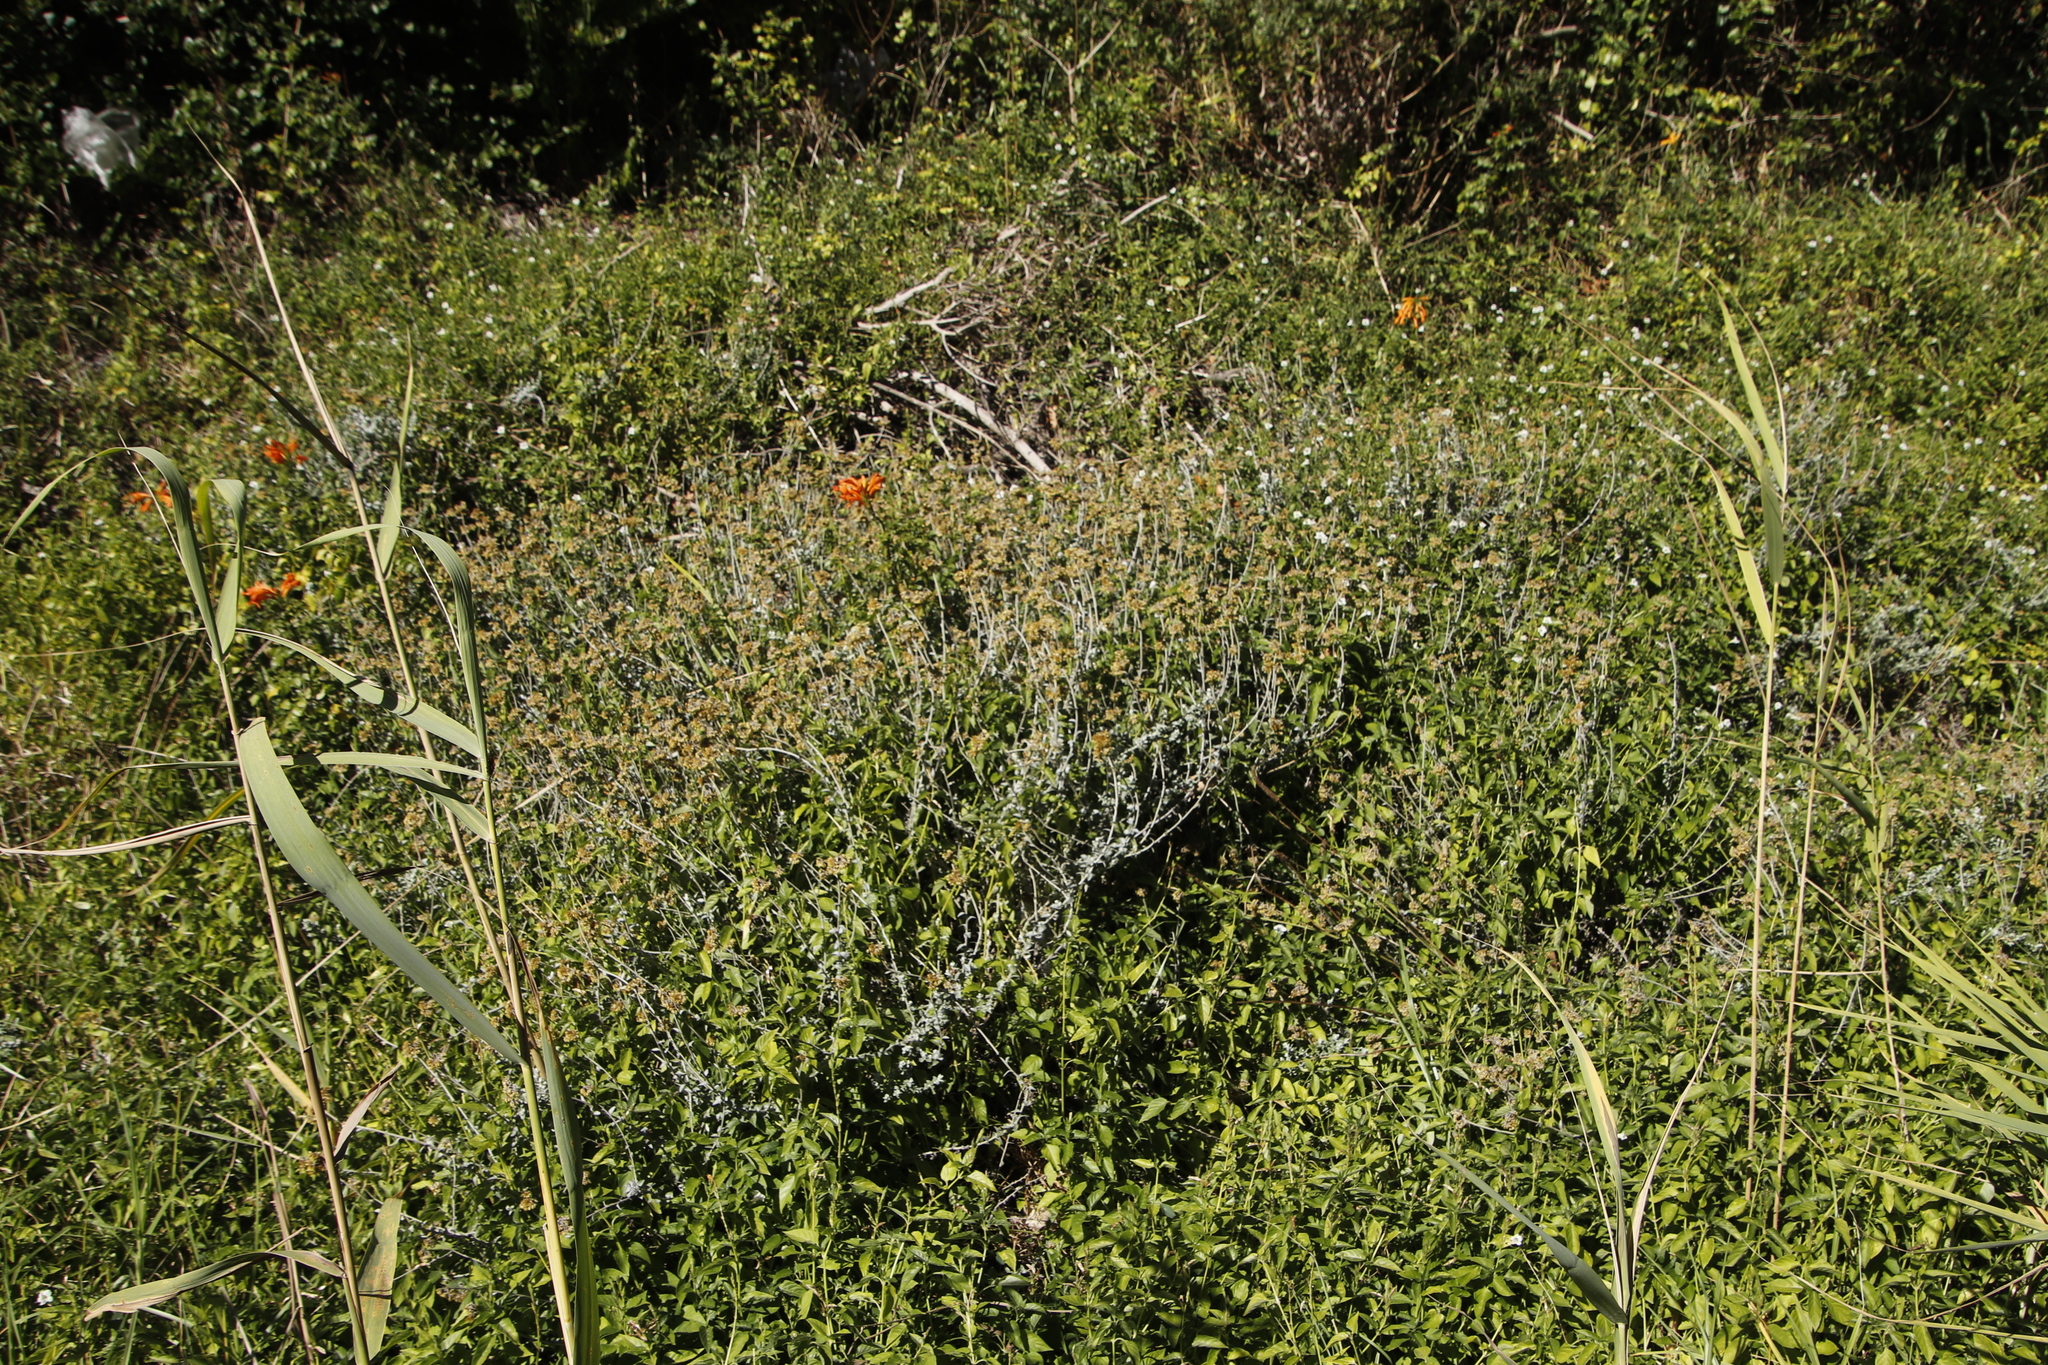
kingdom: Plantae
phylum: Tracheophyta
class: Magnoliopsida
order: Lamiales
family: Bignoniaceae
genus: Tecomaria
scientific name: Tecomaria capensis
